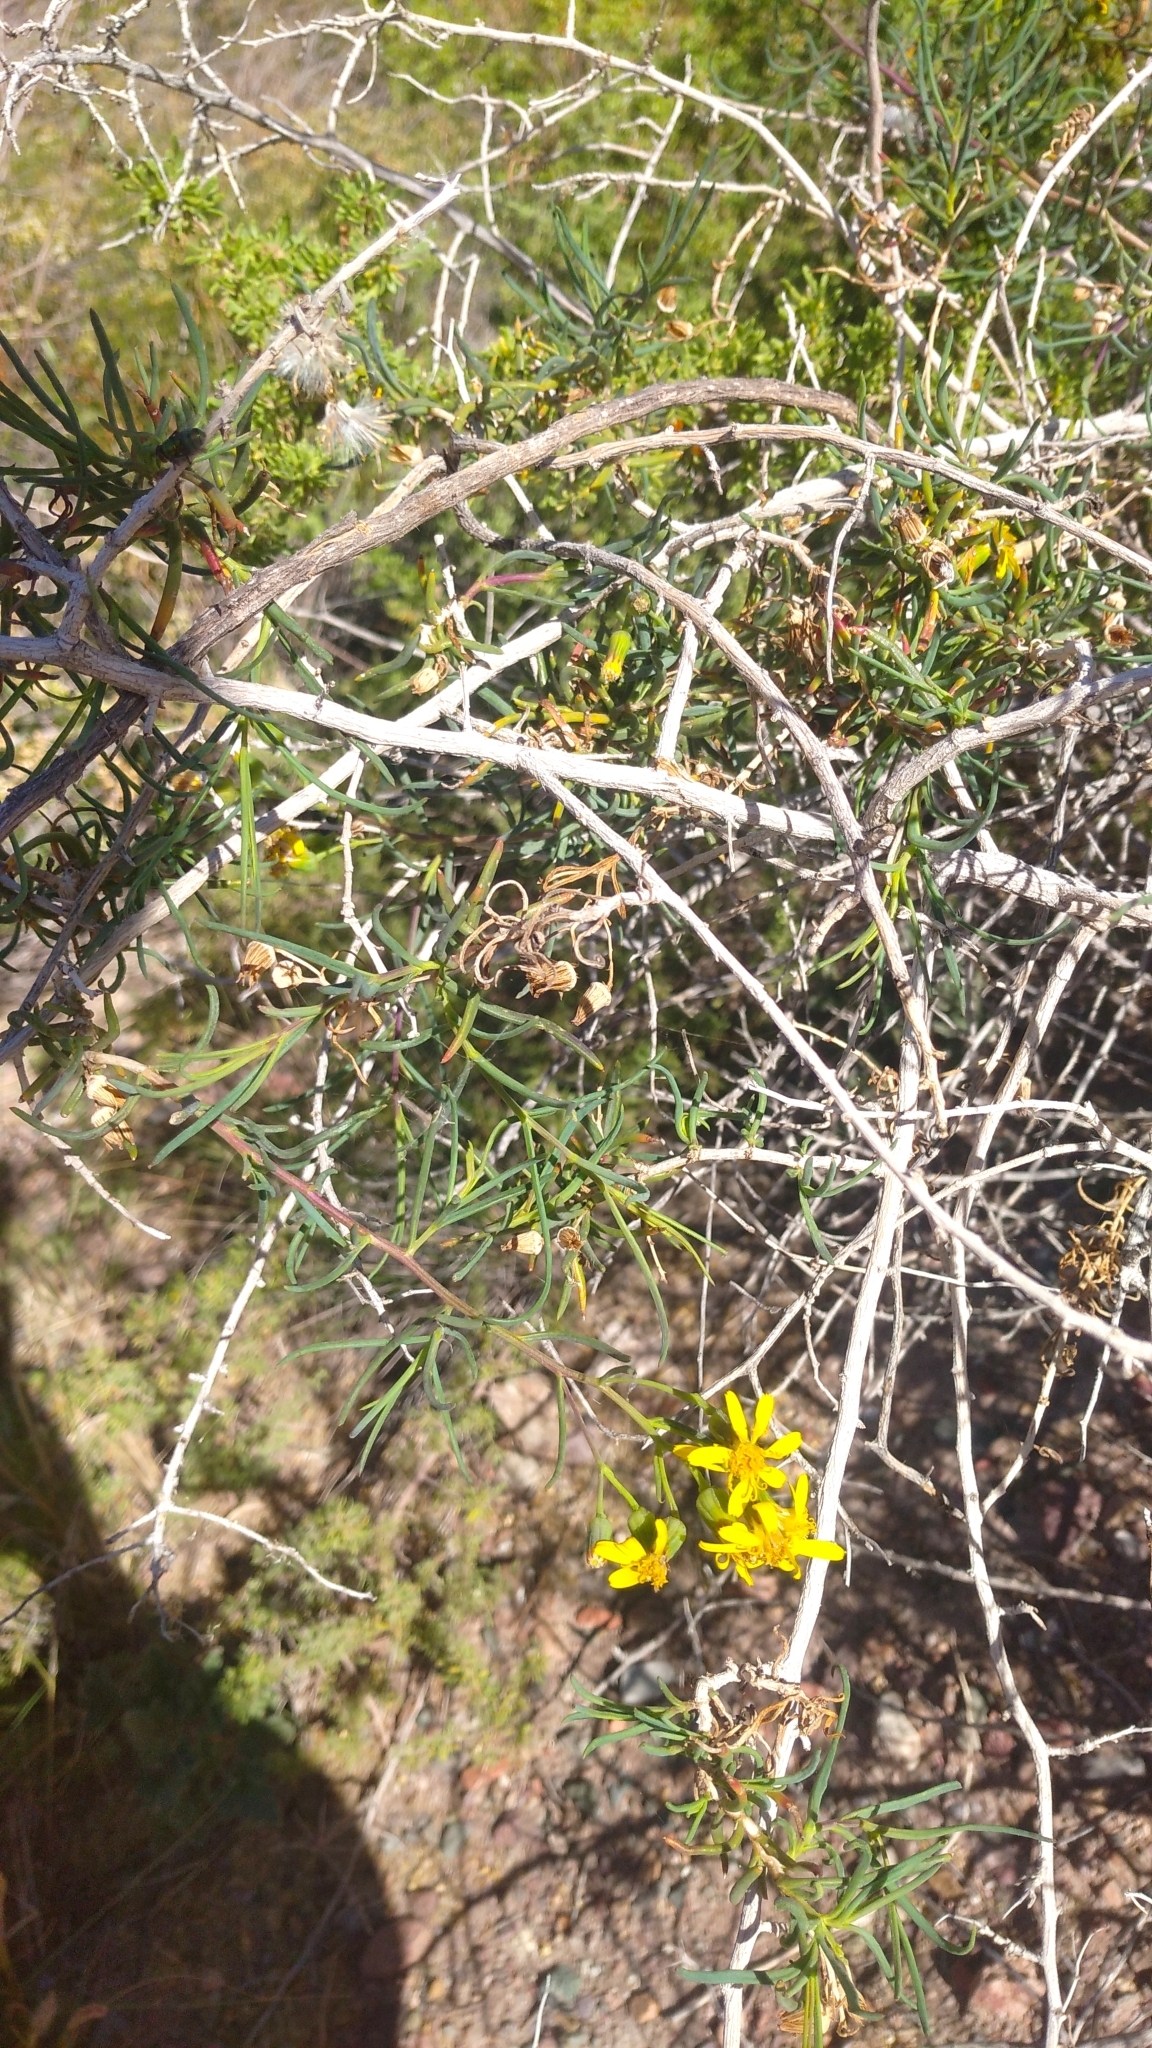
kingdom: Plantae
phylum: Tracheophyta
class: Magnoliopsida
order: Asterales
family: Asteraceae
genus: Senecio
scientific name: Senecio subulatus
